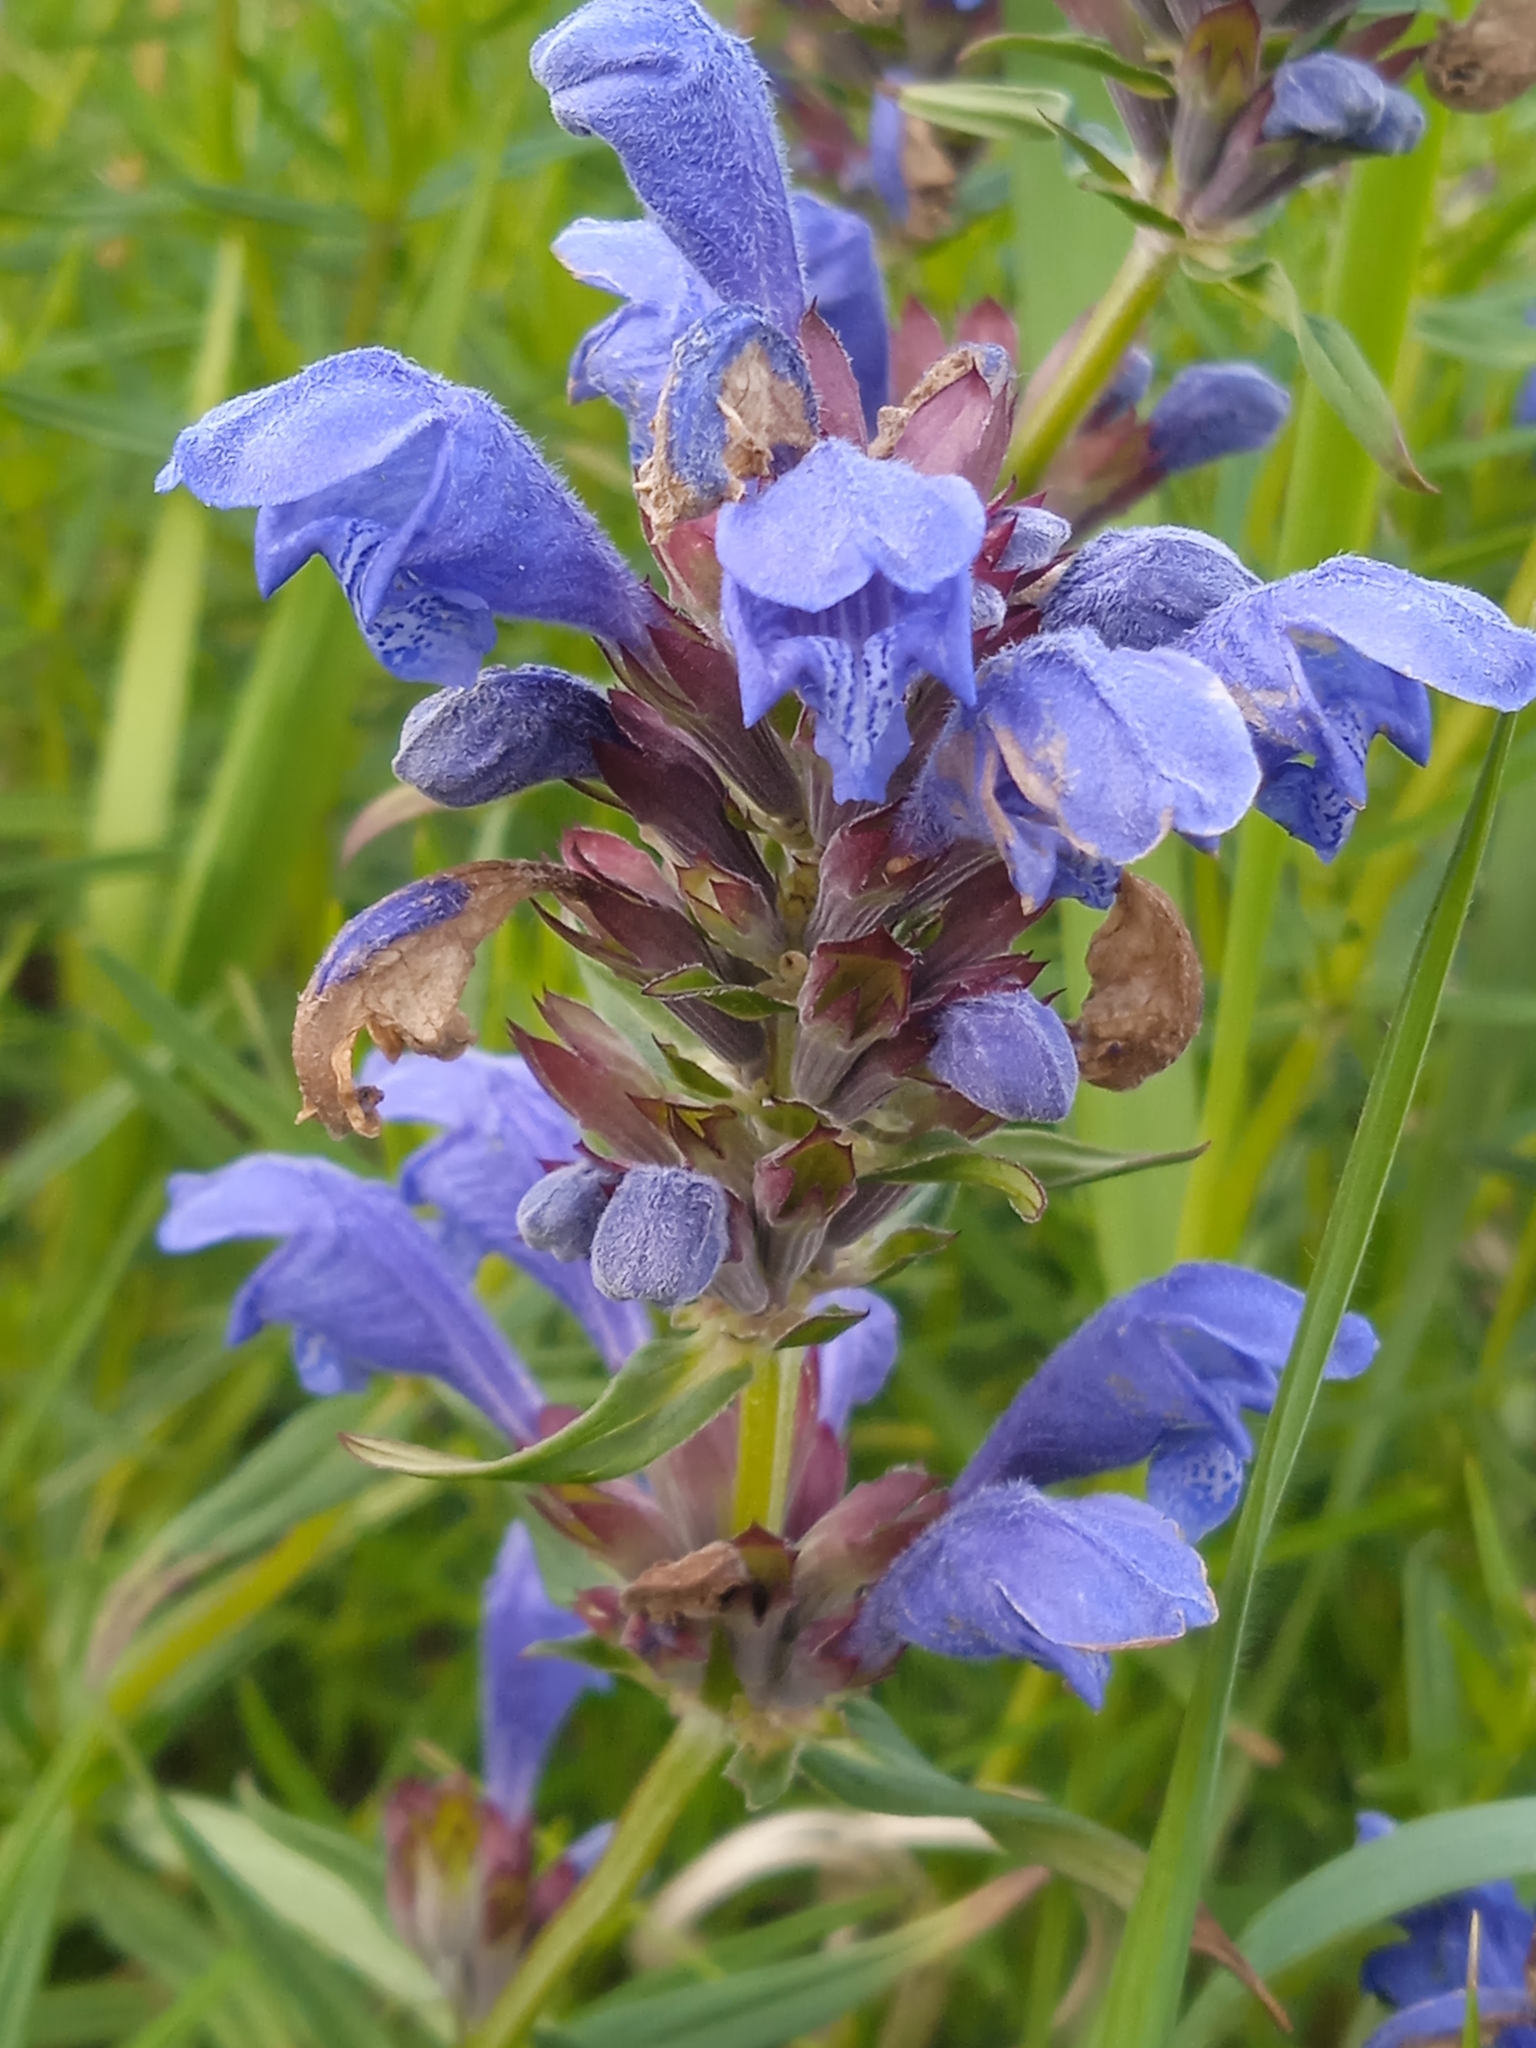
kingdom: Plantae
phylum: Tracheophyta
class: Magnoliopsida
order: Lamiales
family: Lamiaceae
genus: Dracocephalum
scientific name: Dracocephalum ruyschiana
